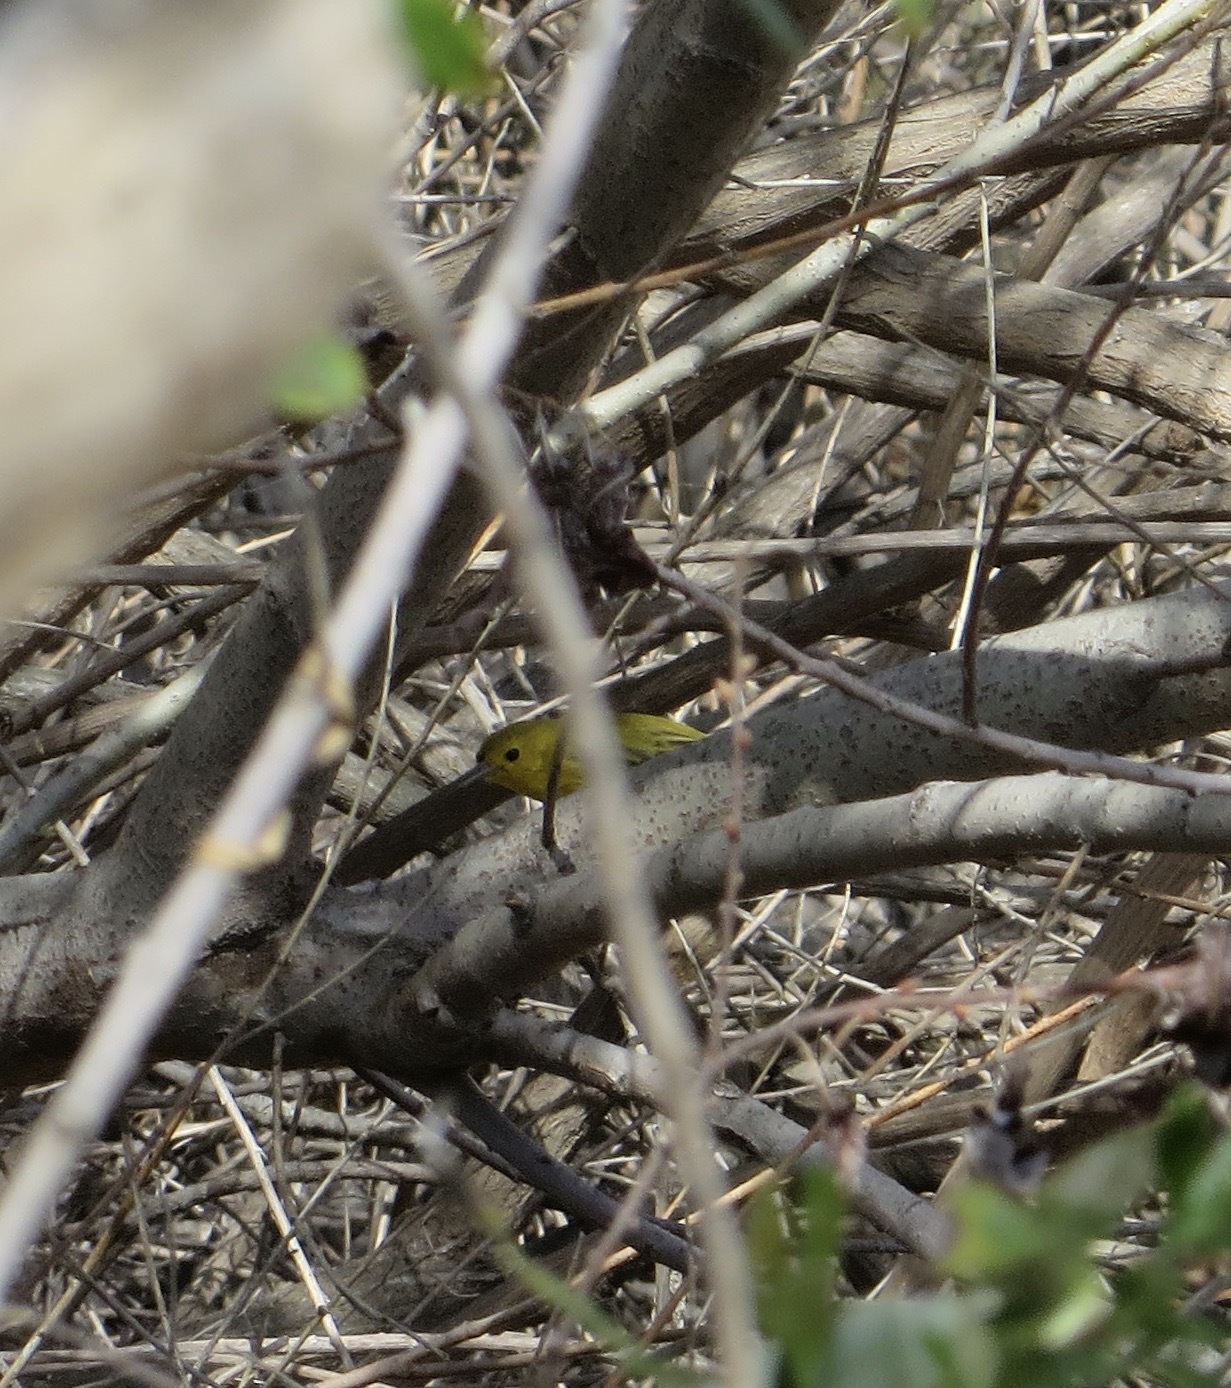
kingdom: Animalia
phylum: Chordata
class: Aves
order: Passeriformes
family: Parulidae
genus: Setophaga
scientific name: Setophaga petechia
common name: Yellow warbler
